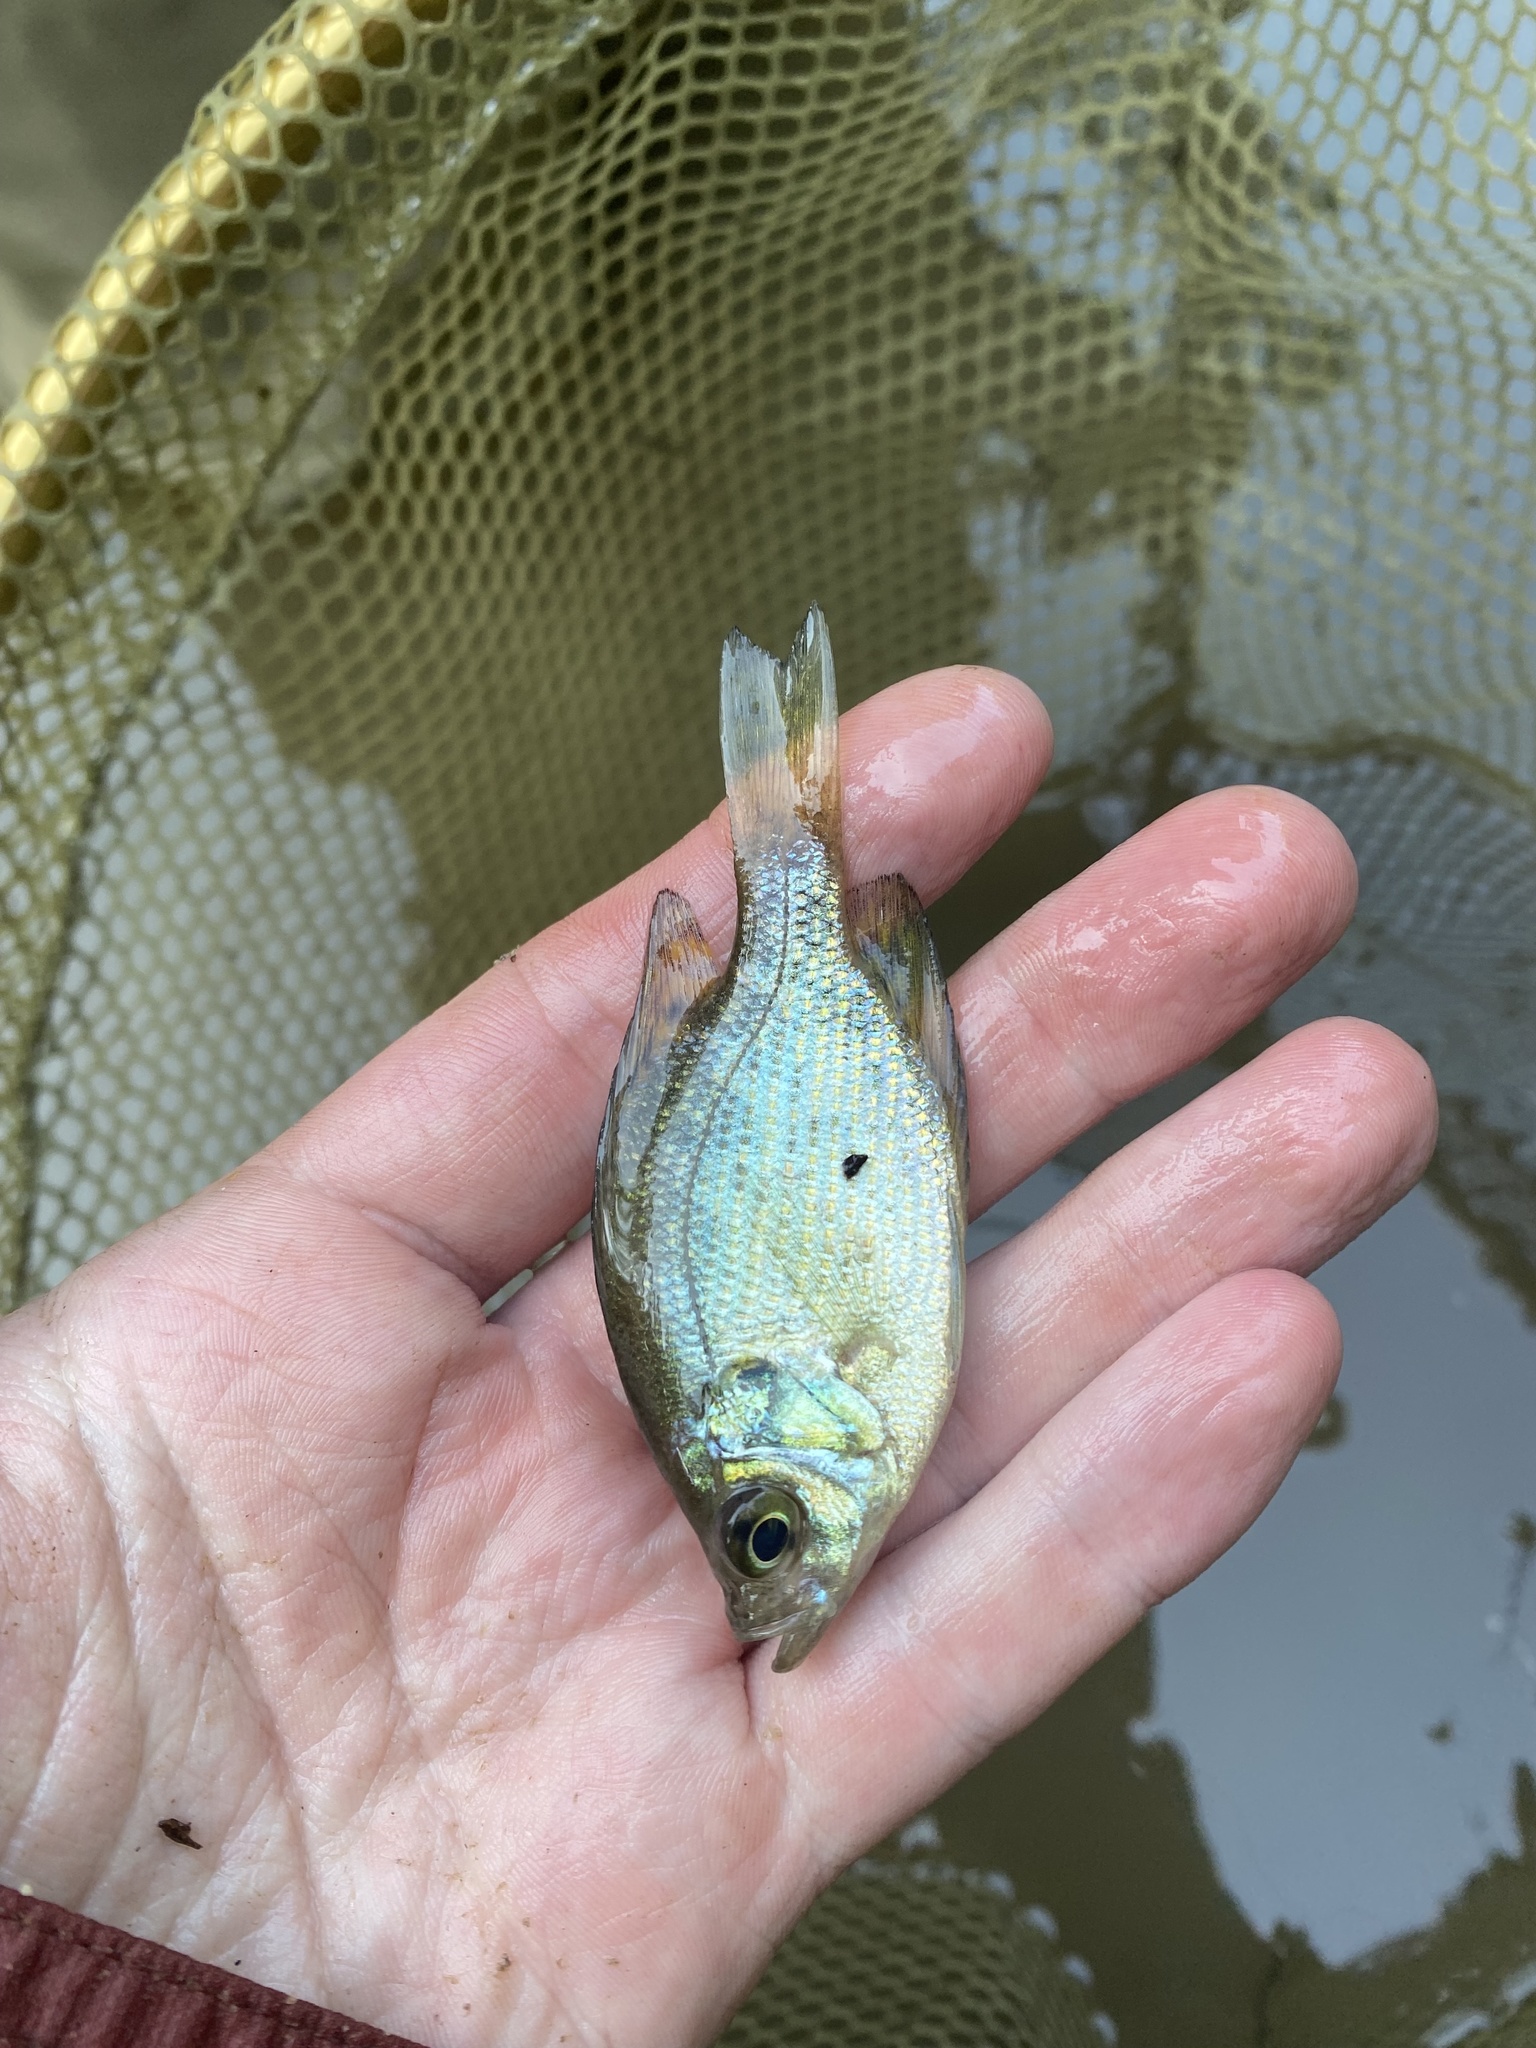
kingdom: Animalia
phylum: Chordata
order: Perciformes
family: Centrarchidae
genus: Centrarchus
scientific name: Centrarchus macropterus
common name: Flier
